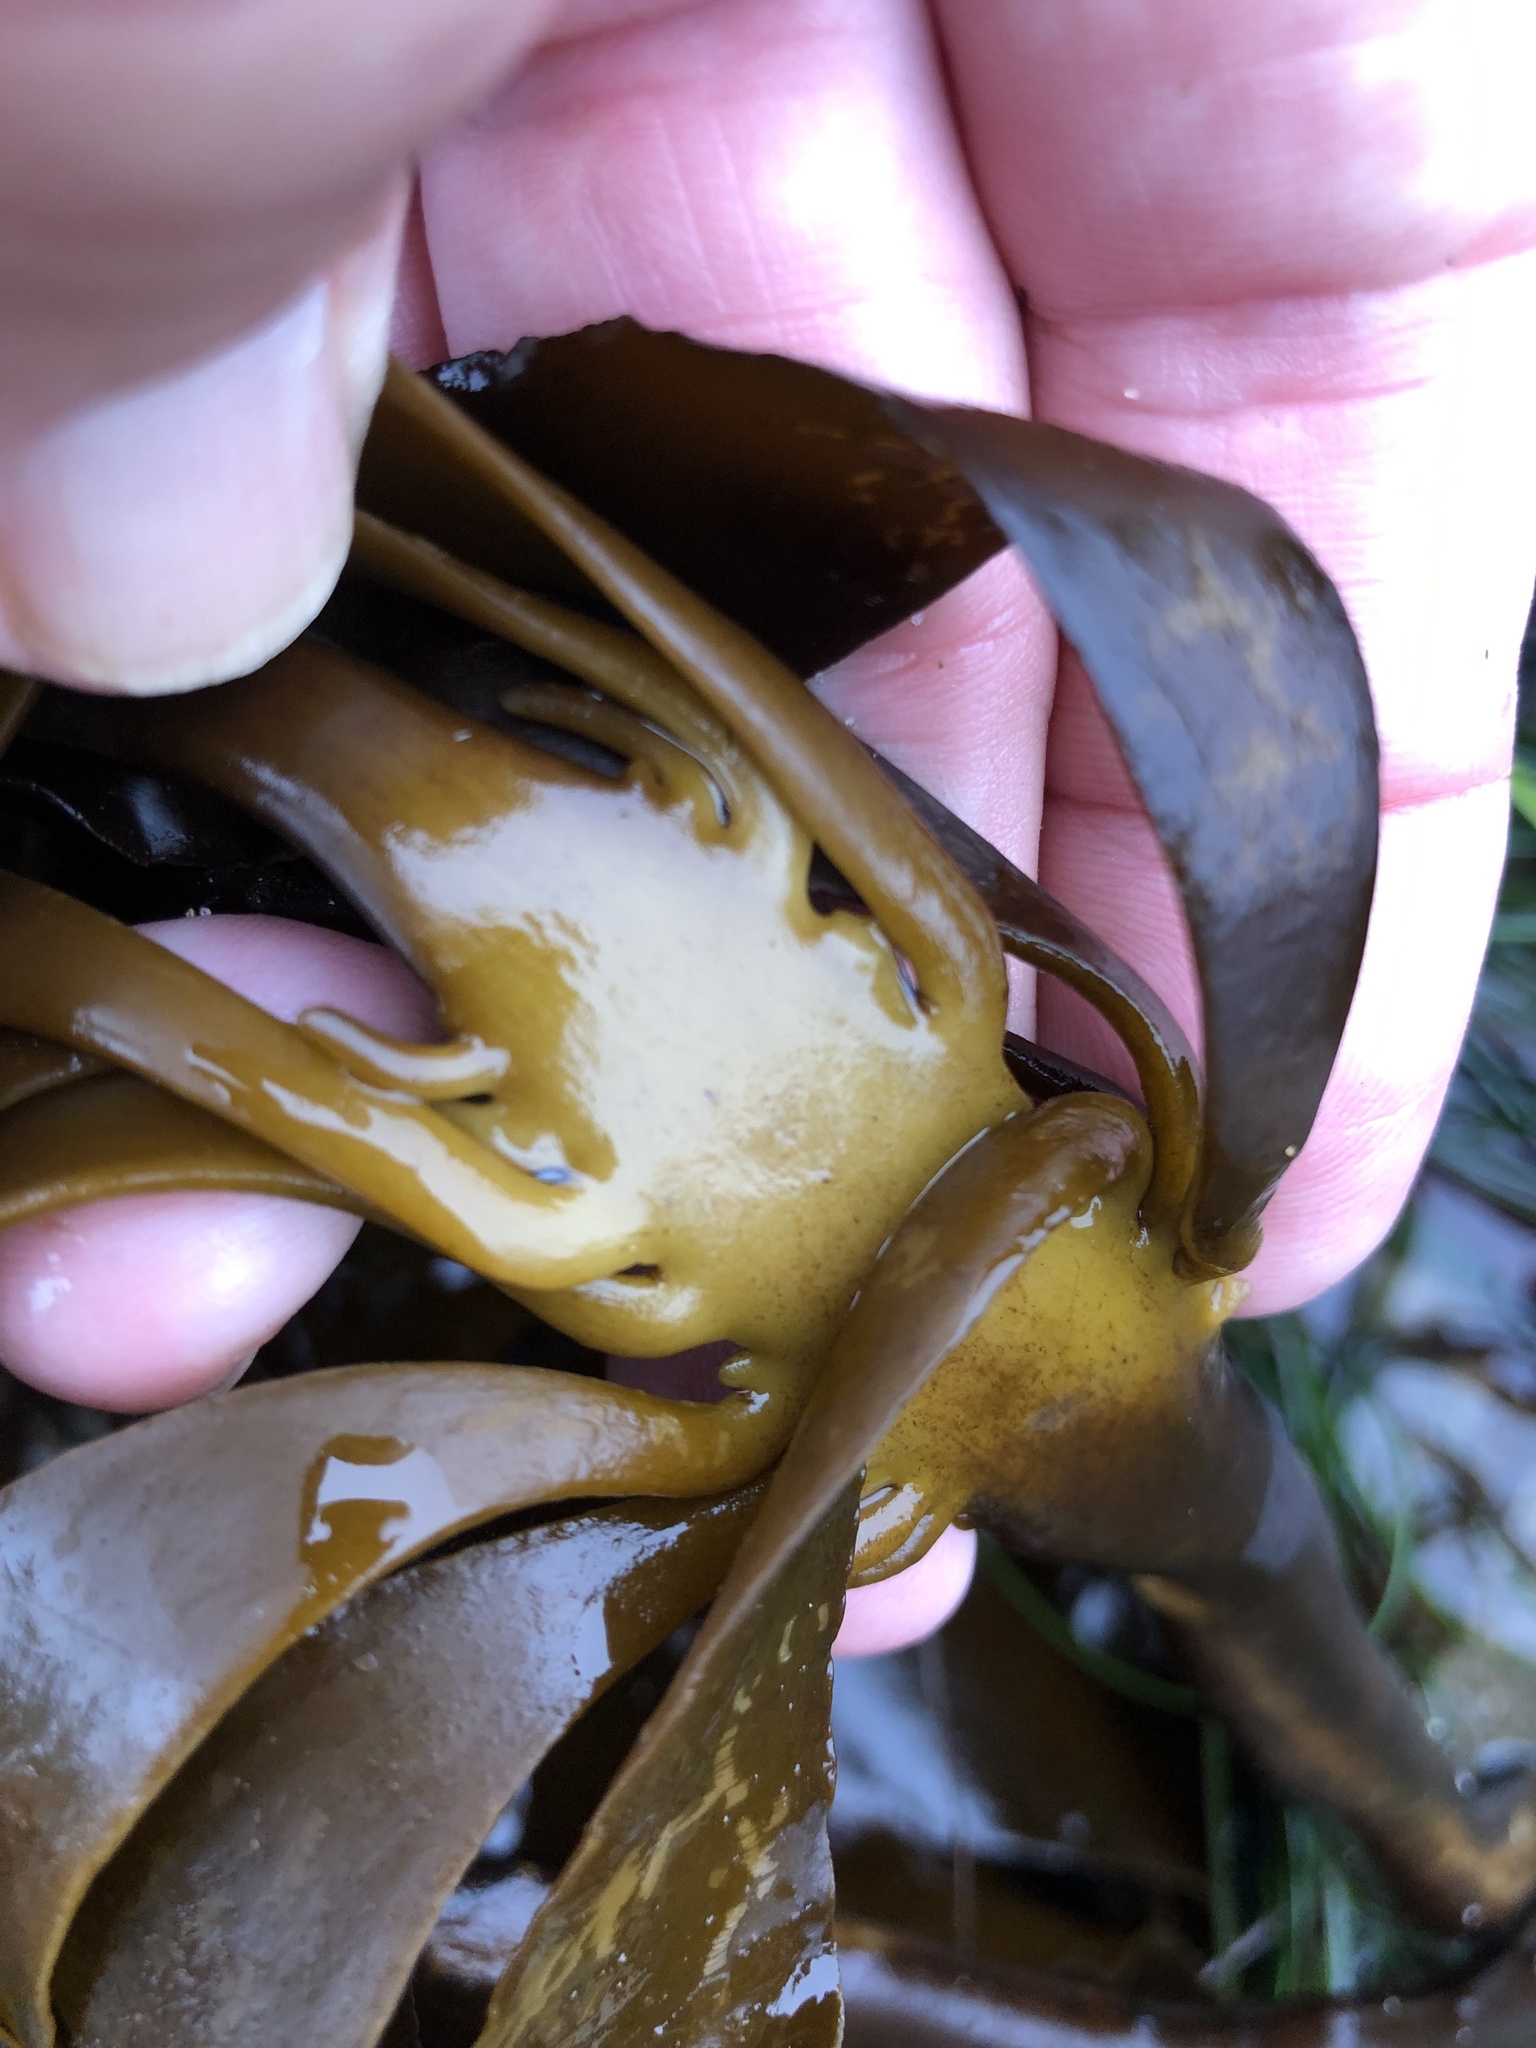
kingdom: Chromista
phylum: Ochrophyta
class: Phaeophyceae
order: Laminariales
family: Alariaceae
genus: Pterygophora
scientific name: Pterygophora californica
